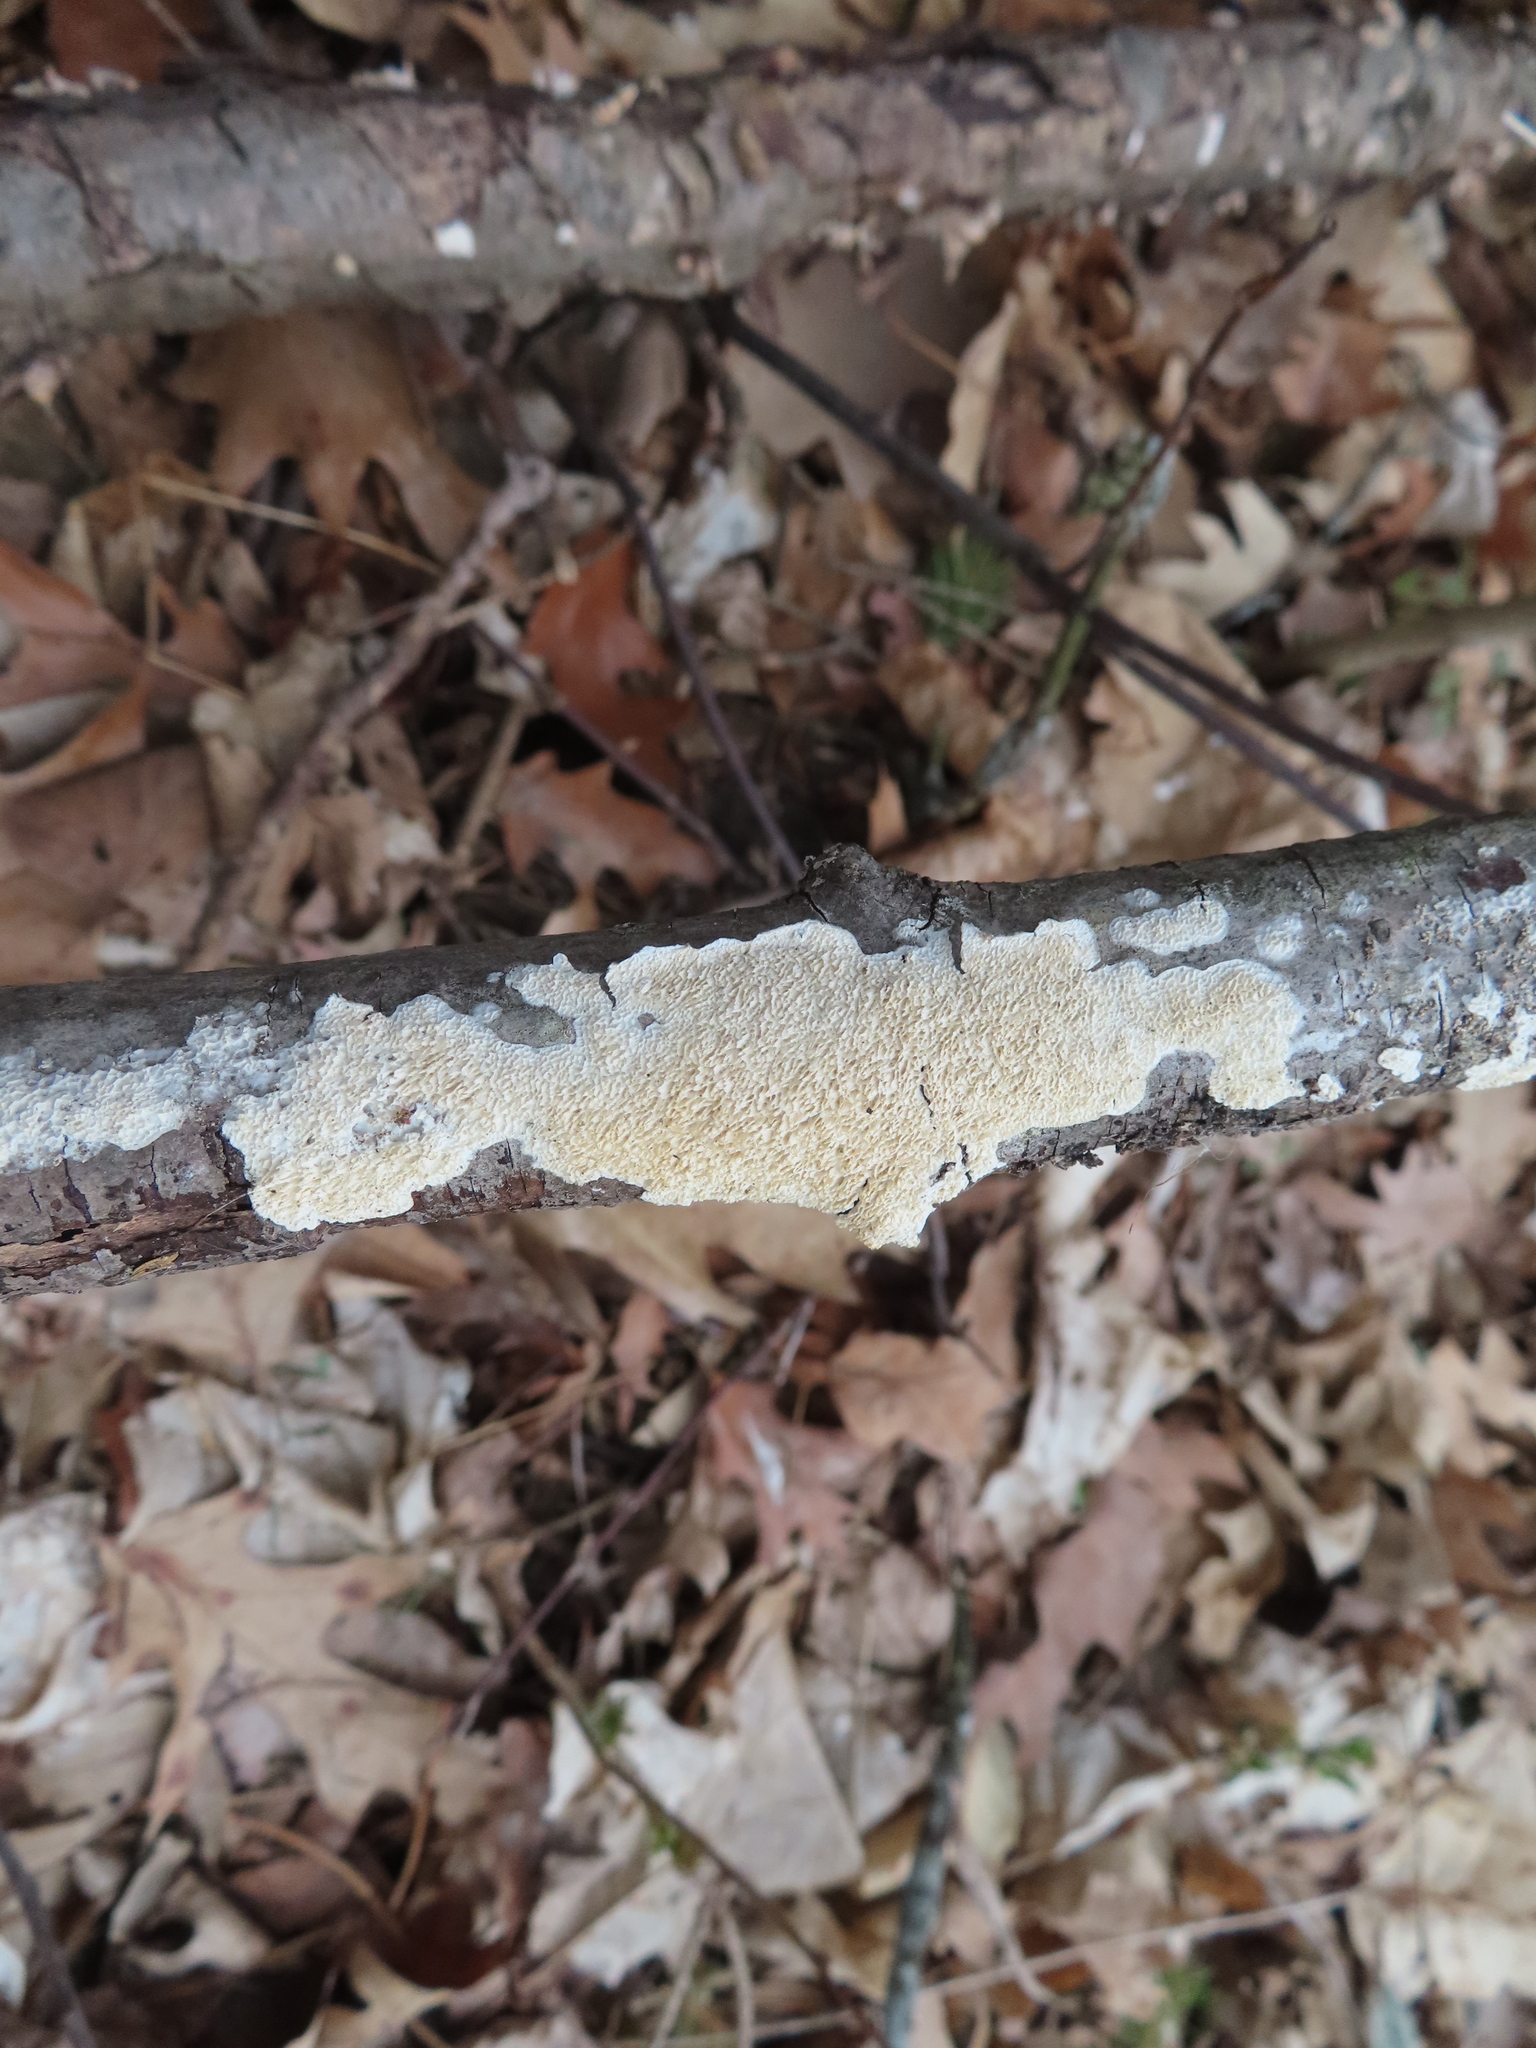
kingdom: Fungi
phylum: Basidiomycota
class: Agaricomycetes
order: Polyporales
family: Irpicaceae
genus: Irpex
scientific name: Irpex lacteus
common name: Milk-white toothed polypore
